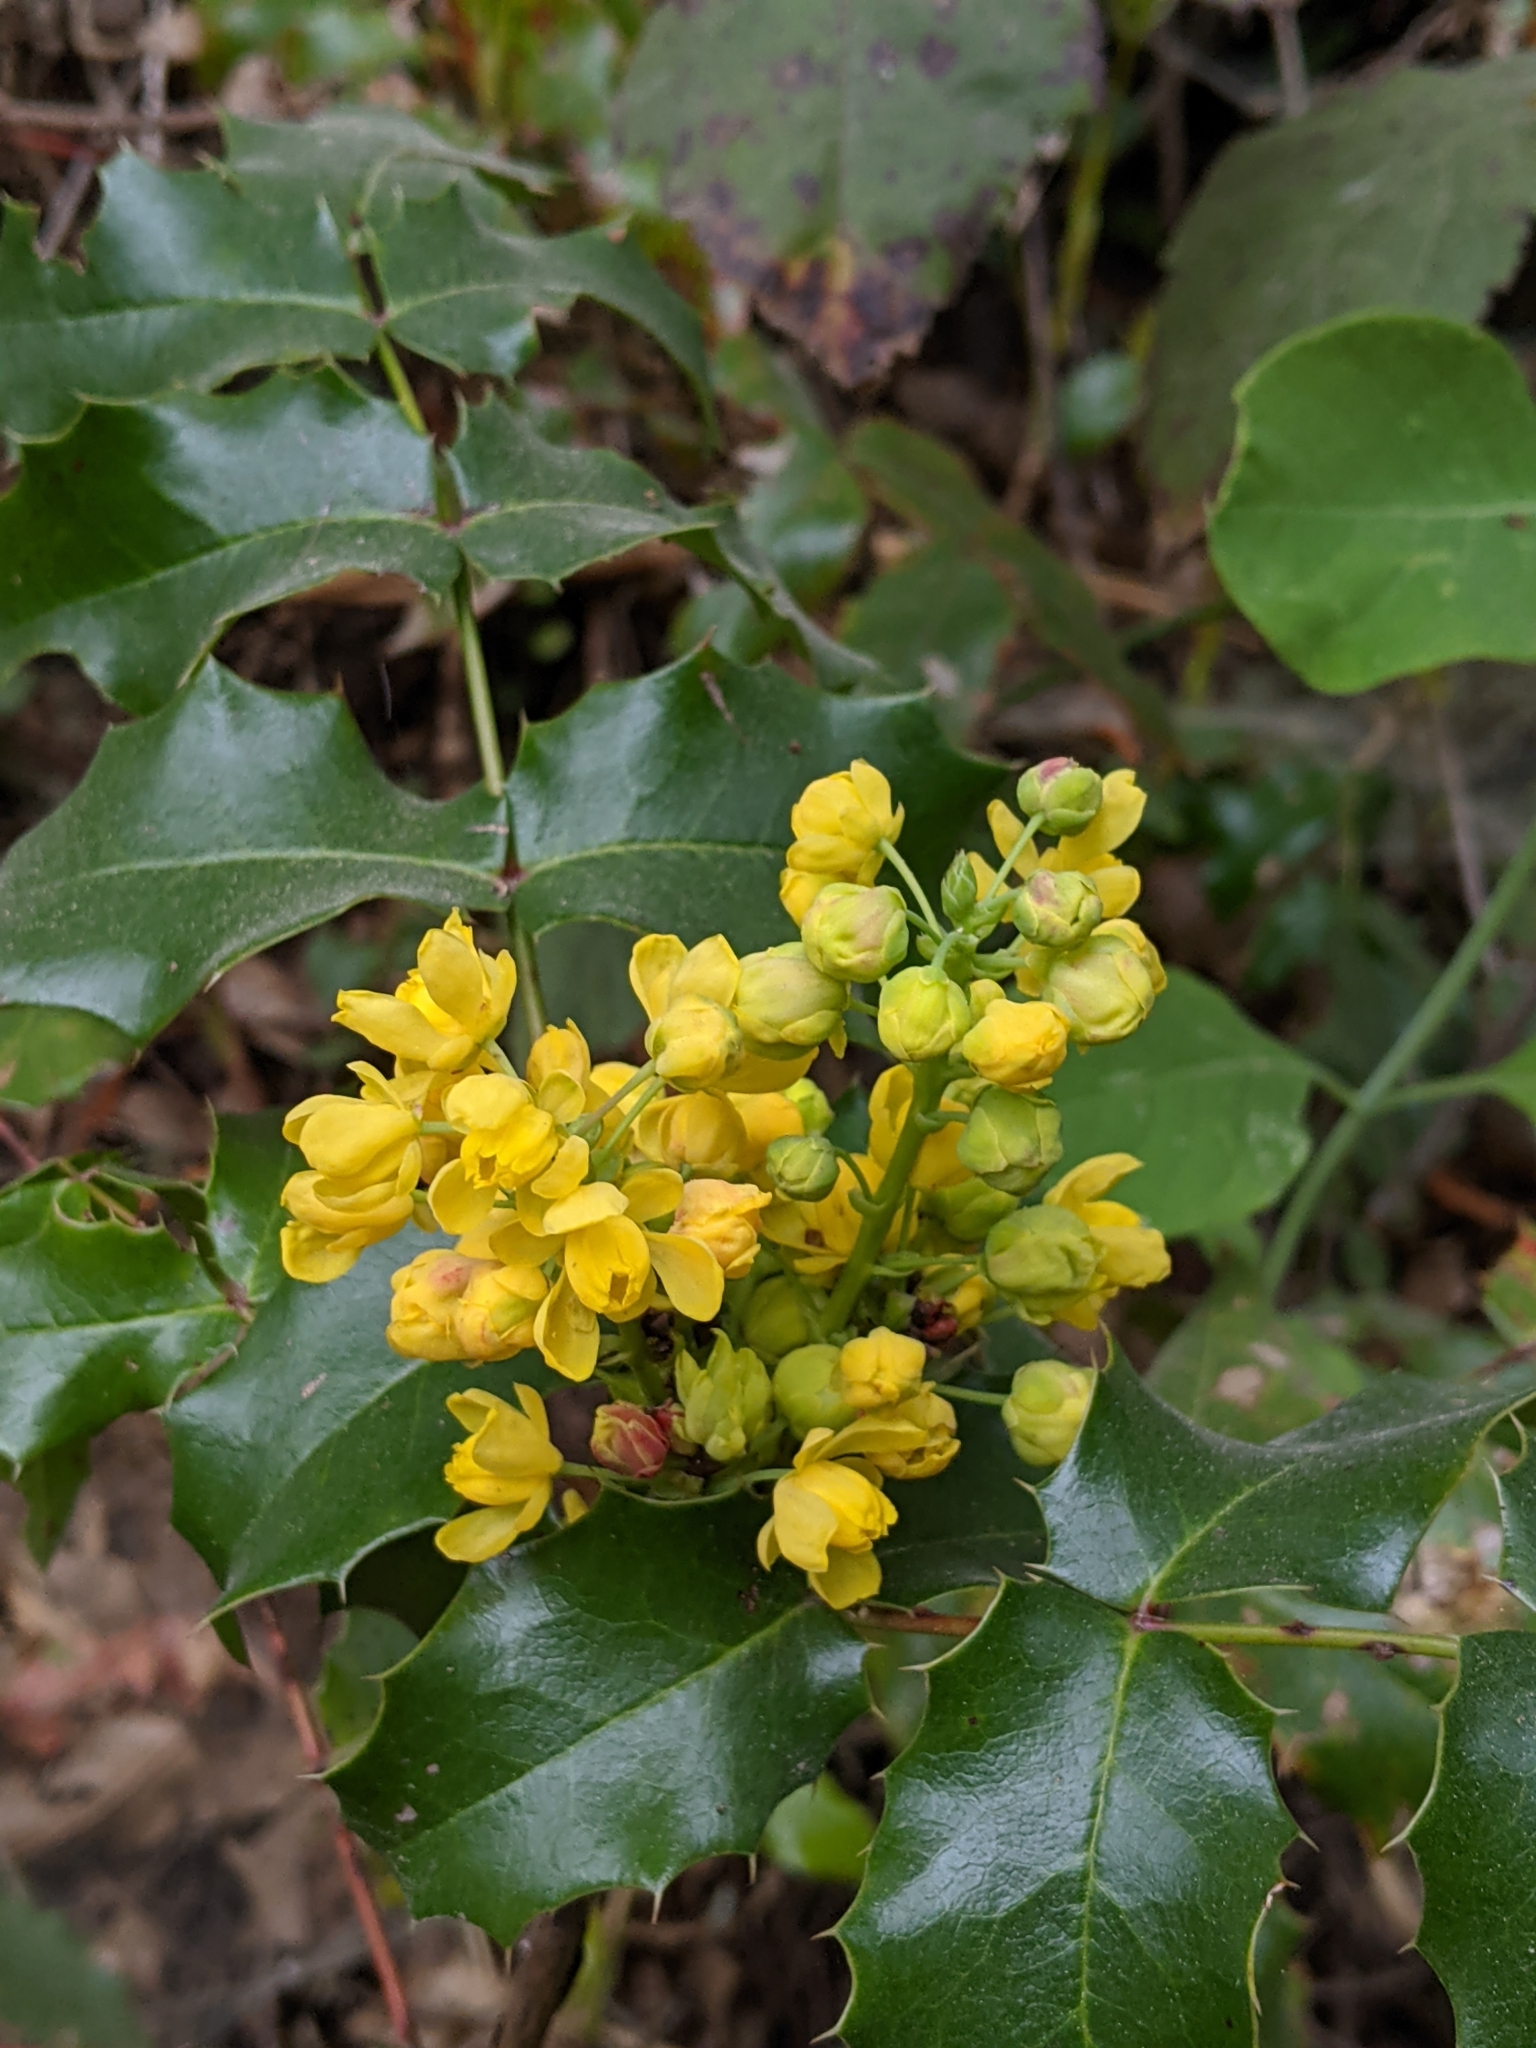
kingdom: Plantae
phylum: Tracheophyta
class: Magnoliopsida
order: Ranunculales
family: Berberidaceae
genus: Mahonia
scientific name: Mahonia aquifolium
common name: Oregon-grape
